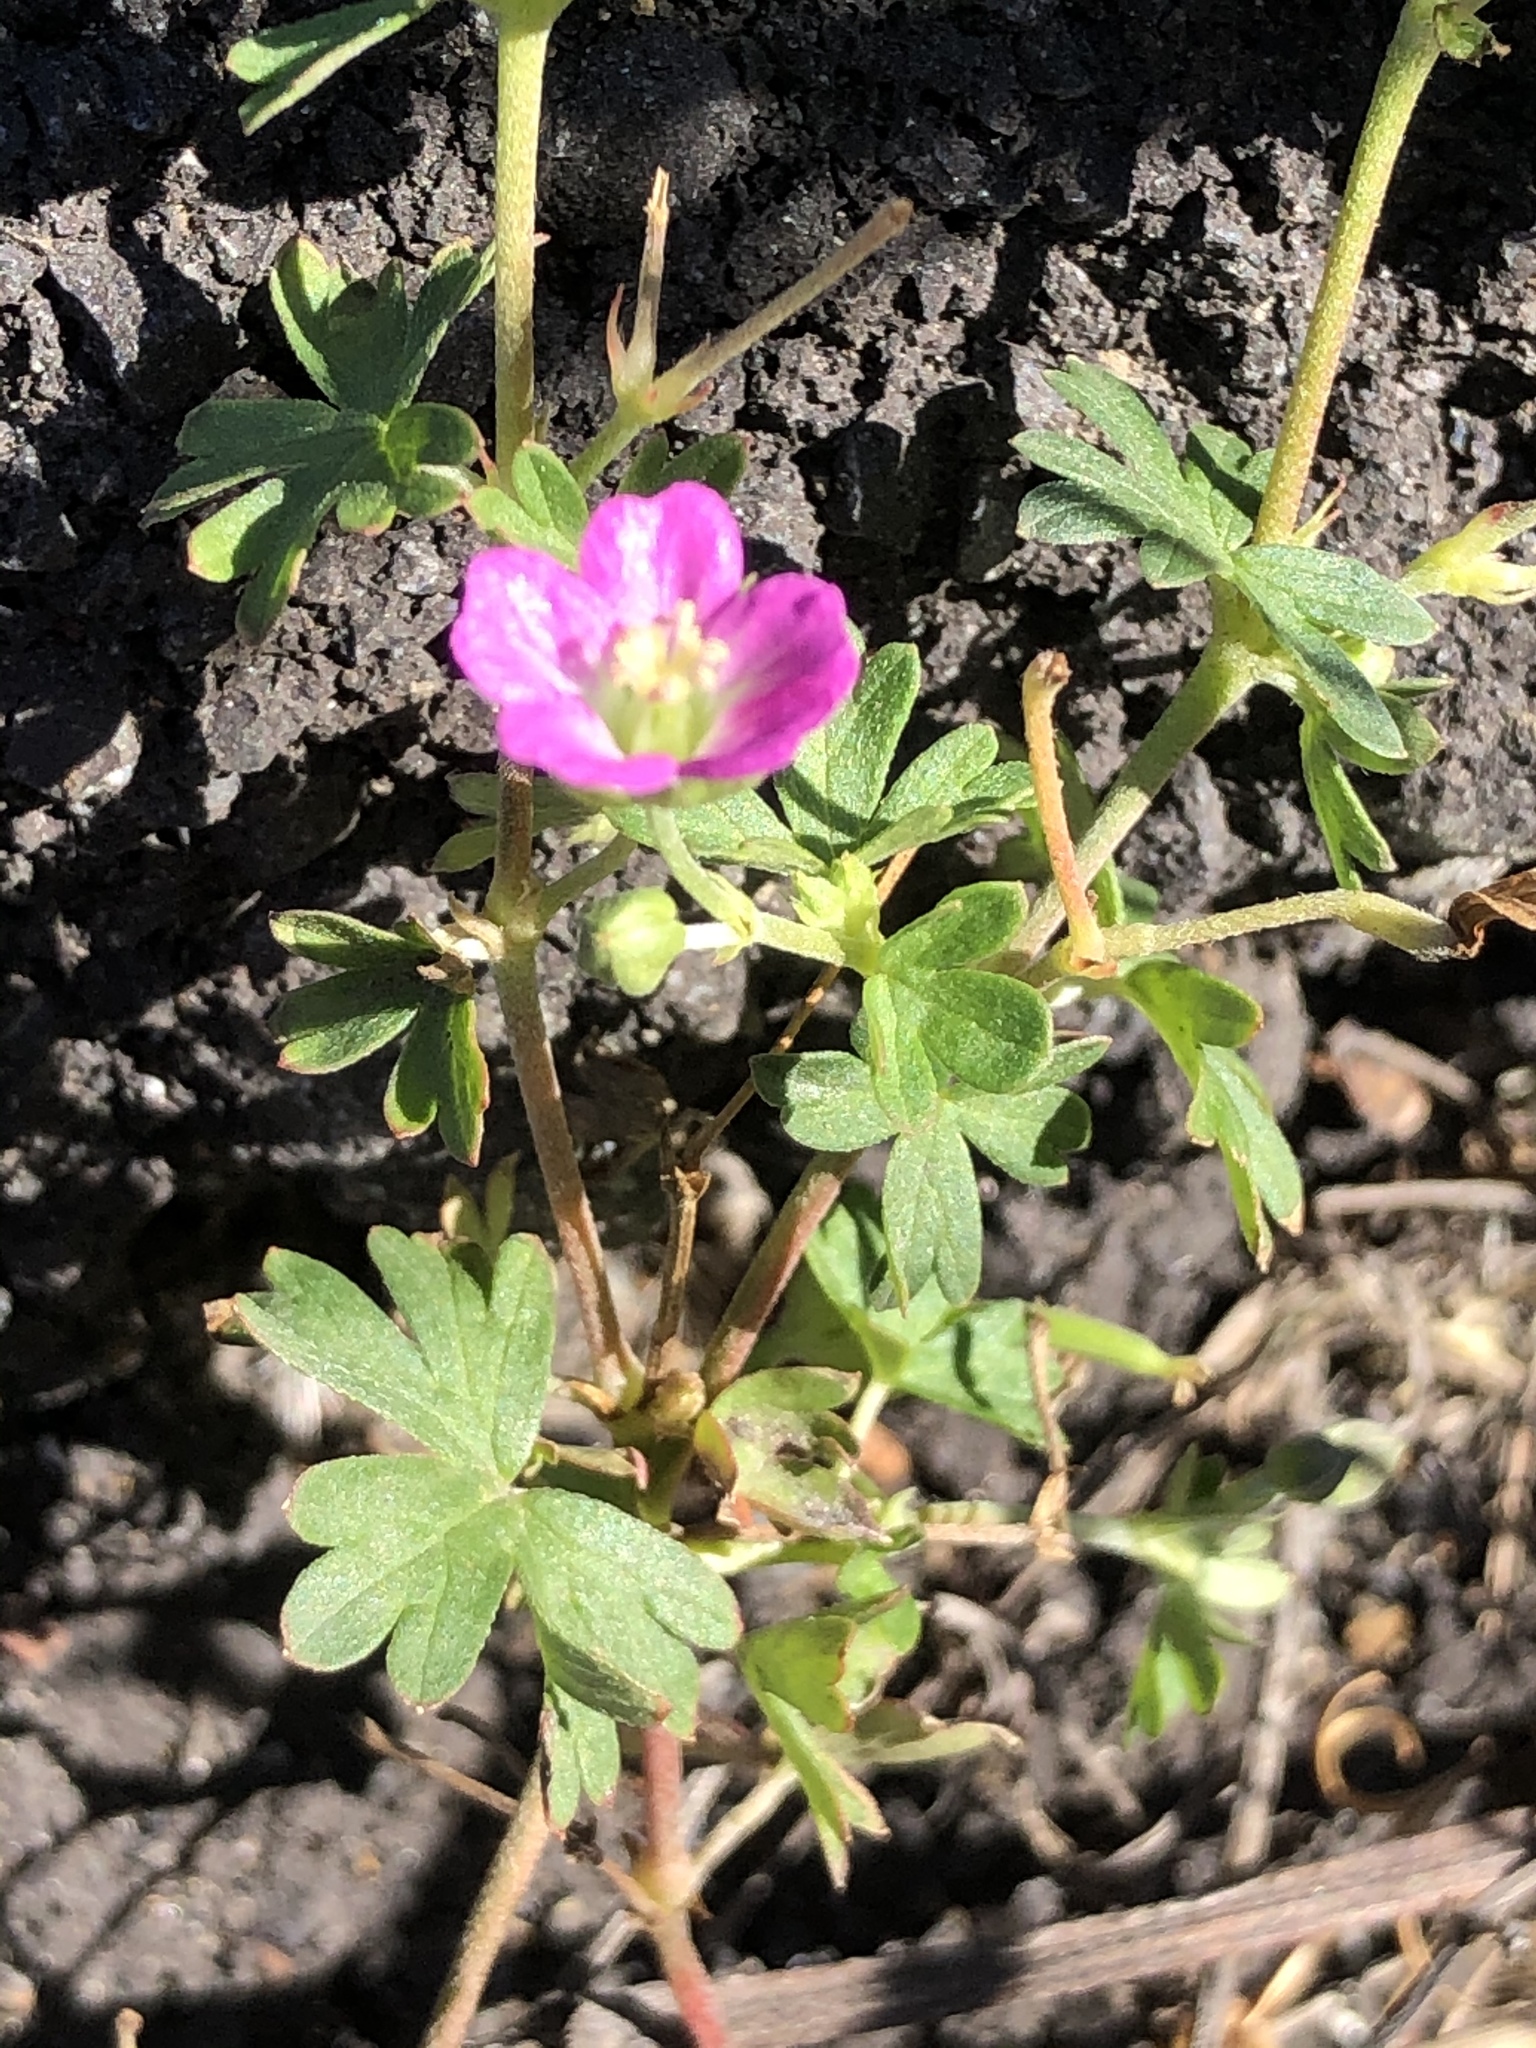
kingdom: Plantae
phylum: Tracheophyta
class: Magnoliopsida
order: Geraniales
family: Geraniaceae
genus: Geranium
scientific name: Geranium core-core
